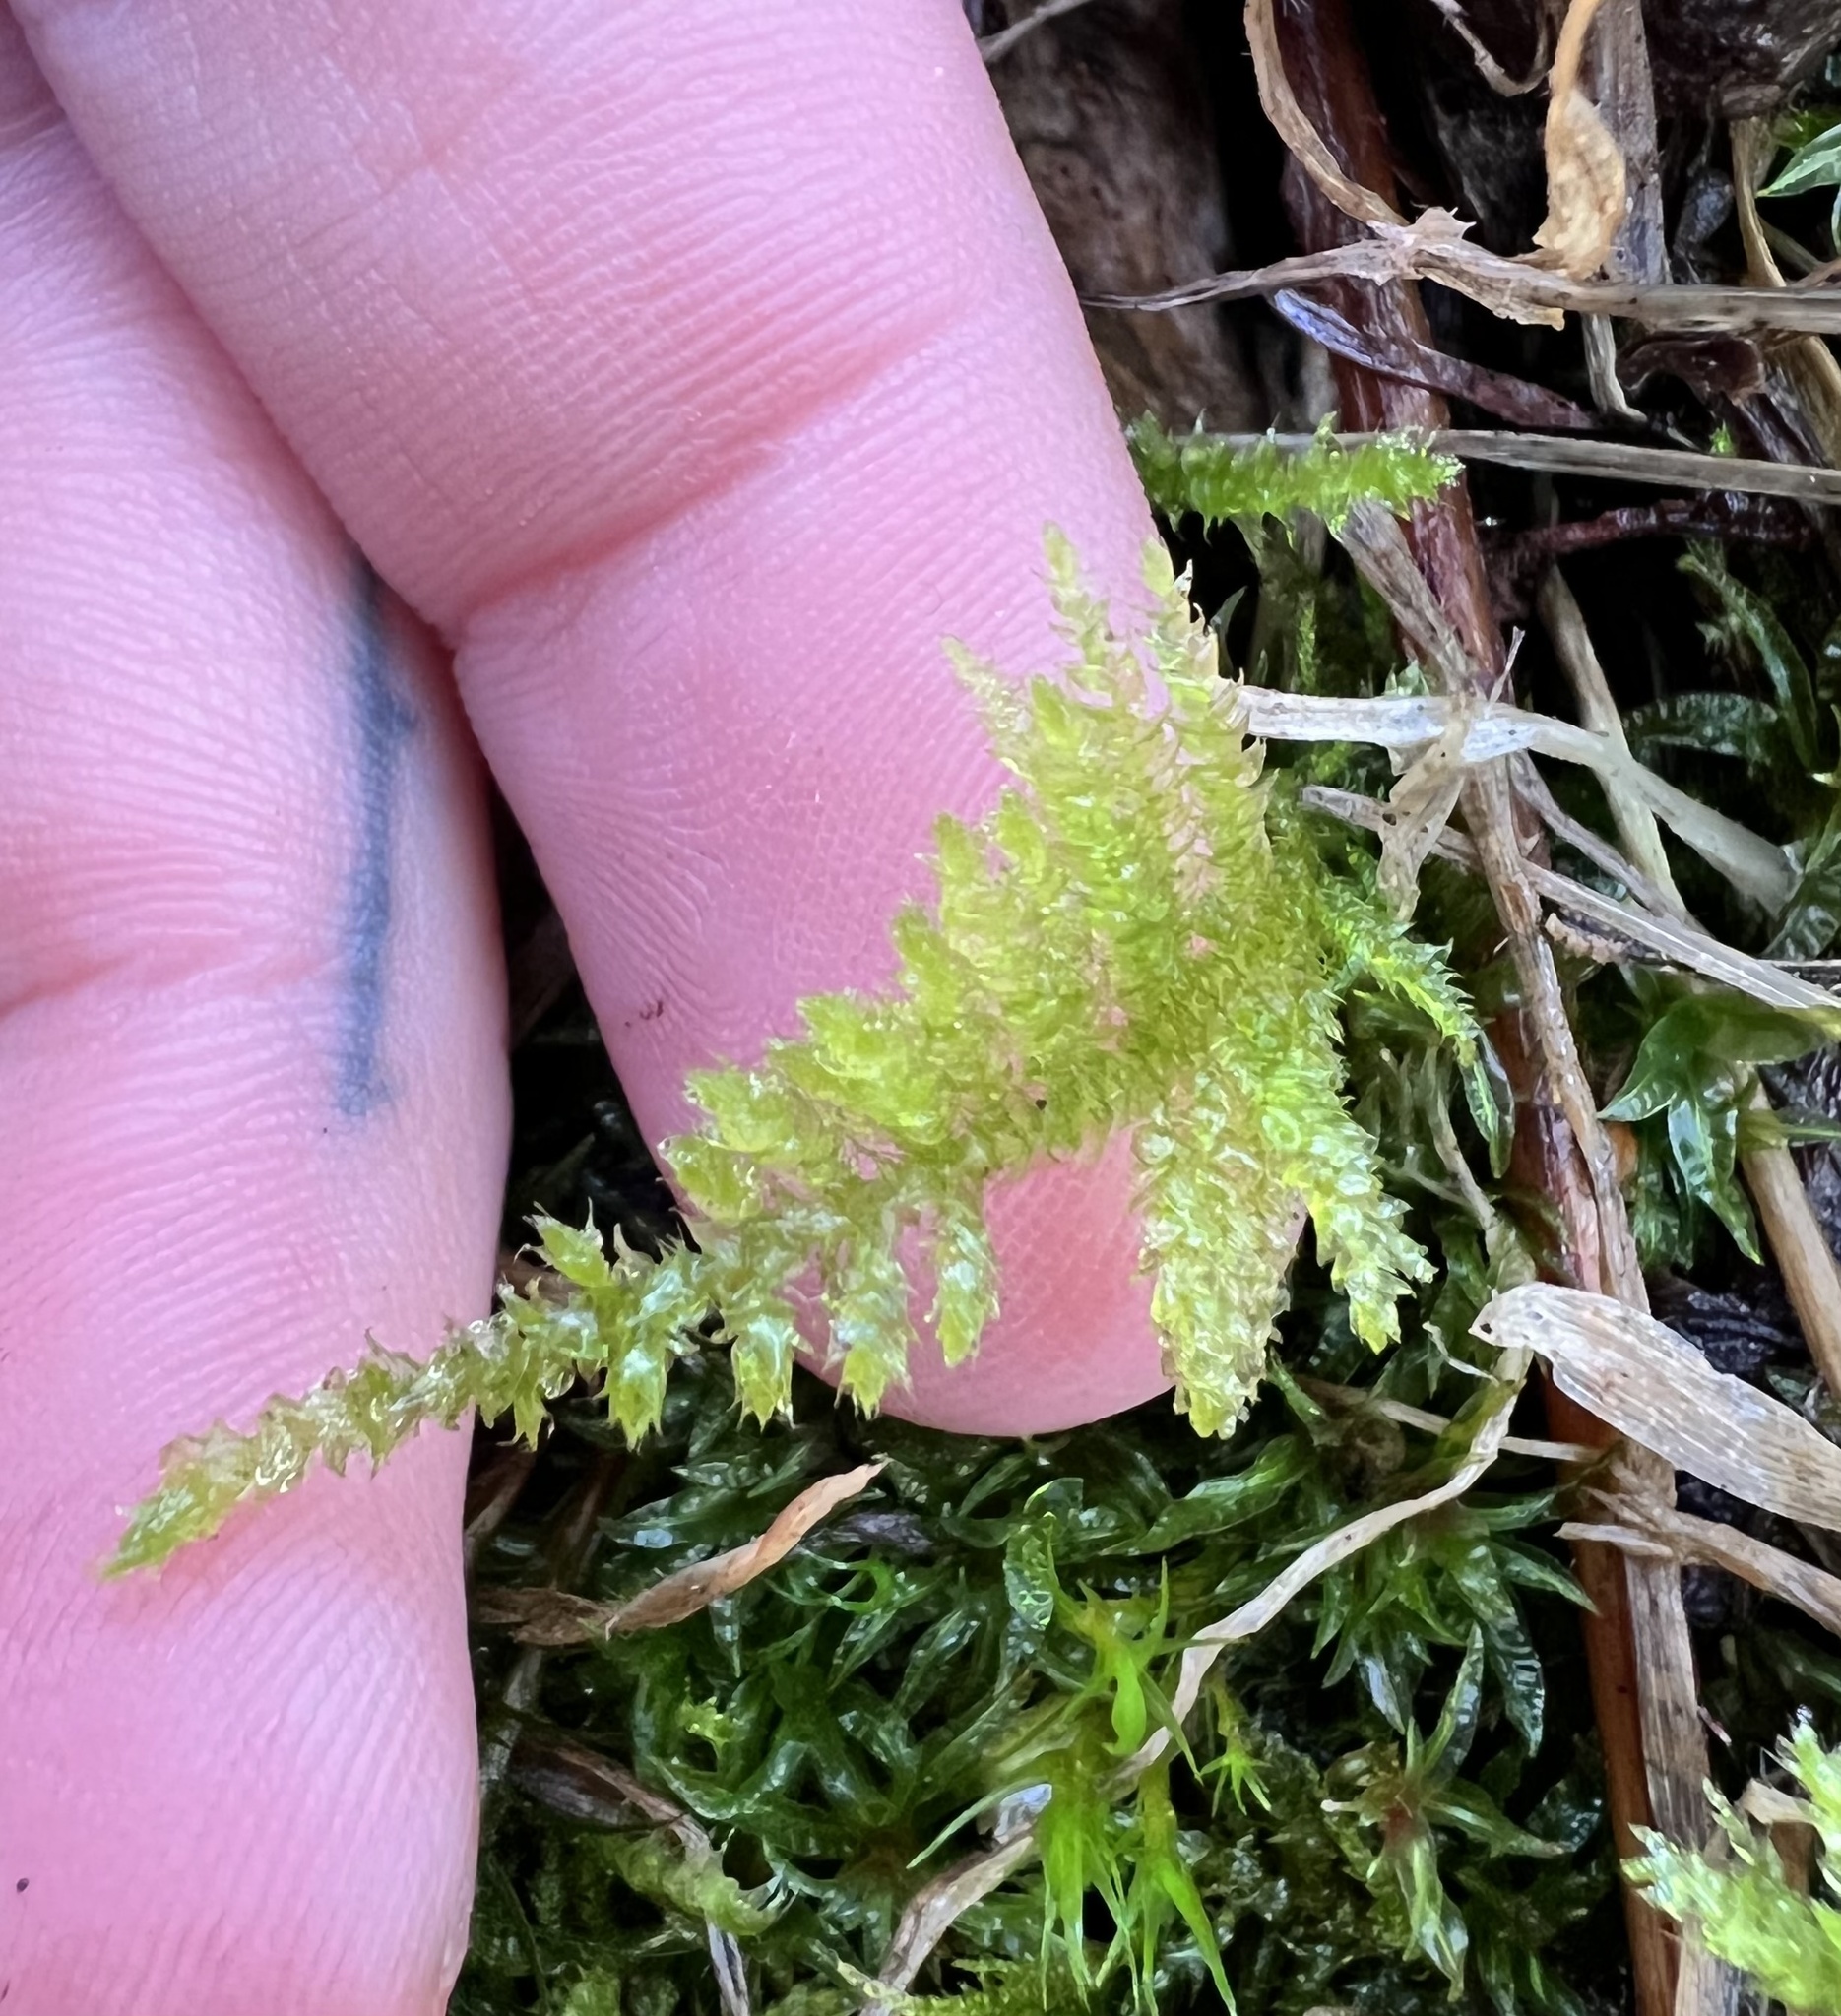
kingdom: Plantae
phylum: Bryophyta
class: Bryopsida
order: Hypnales
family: Brachytheciaceae
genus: Kindbergia
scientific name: Kindbergia oregana
